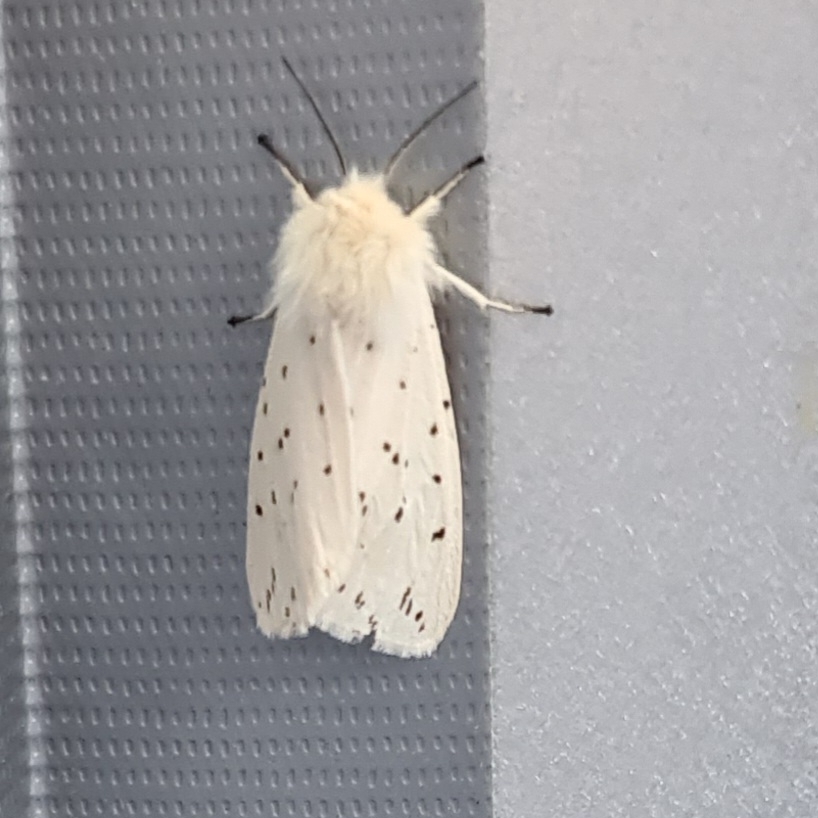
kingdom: Animalia
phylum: Arthropoda
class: Insecta
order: Lepidoptera
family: Erebidae
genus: Spilosoma
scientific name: Spilosoma lubricipeda
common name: White ermine
